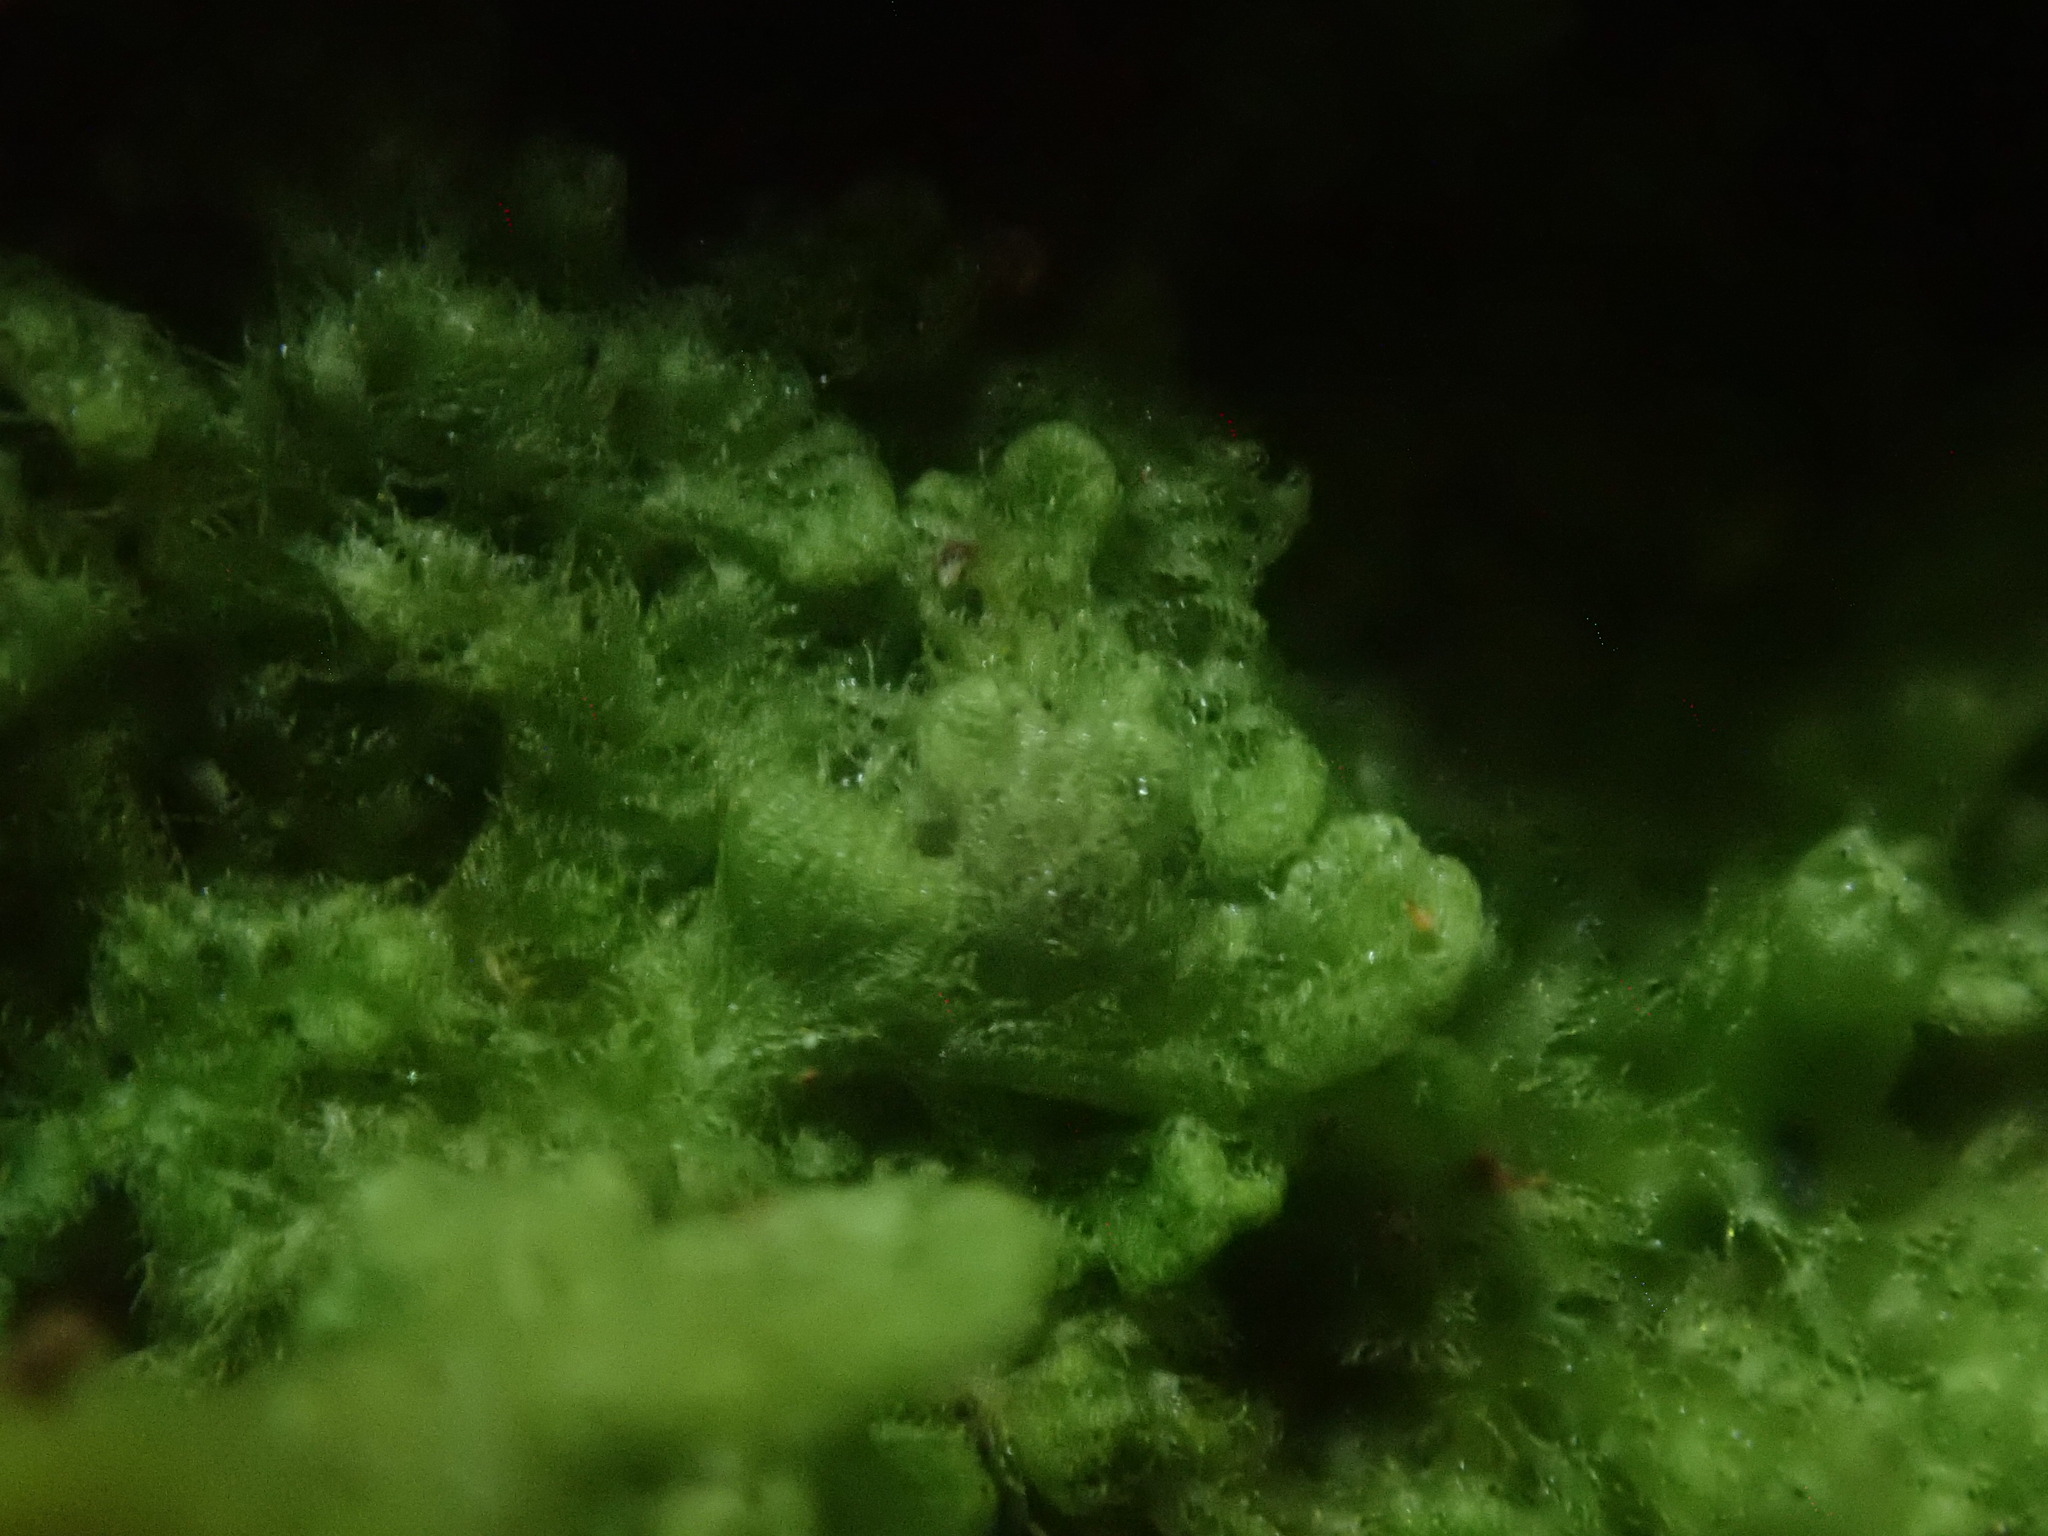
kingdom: Plantae
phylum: Marchantiophyta
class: Jungermanniopsida
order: Ptilidiales
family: Ptilidiaceae
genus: Ptilidium
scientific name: Ptilidium pulcherrimum
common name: Tree fringewort
